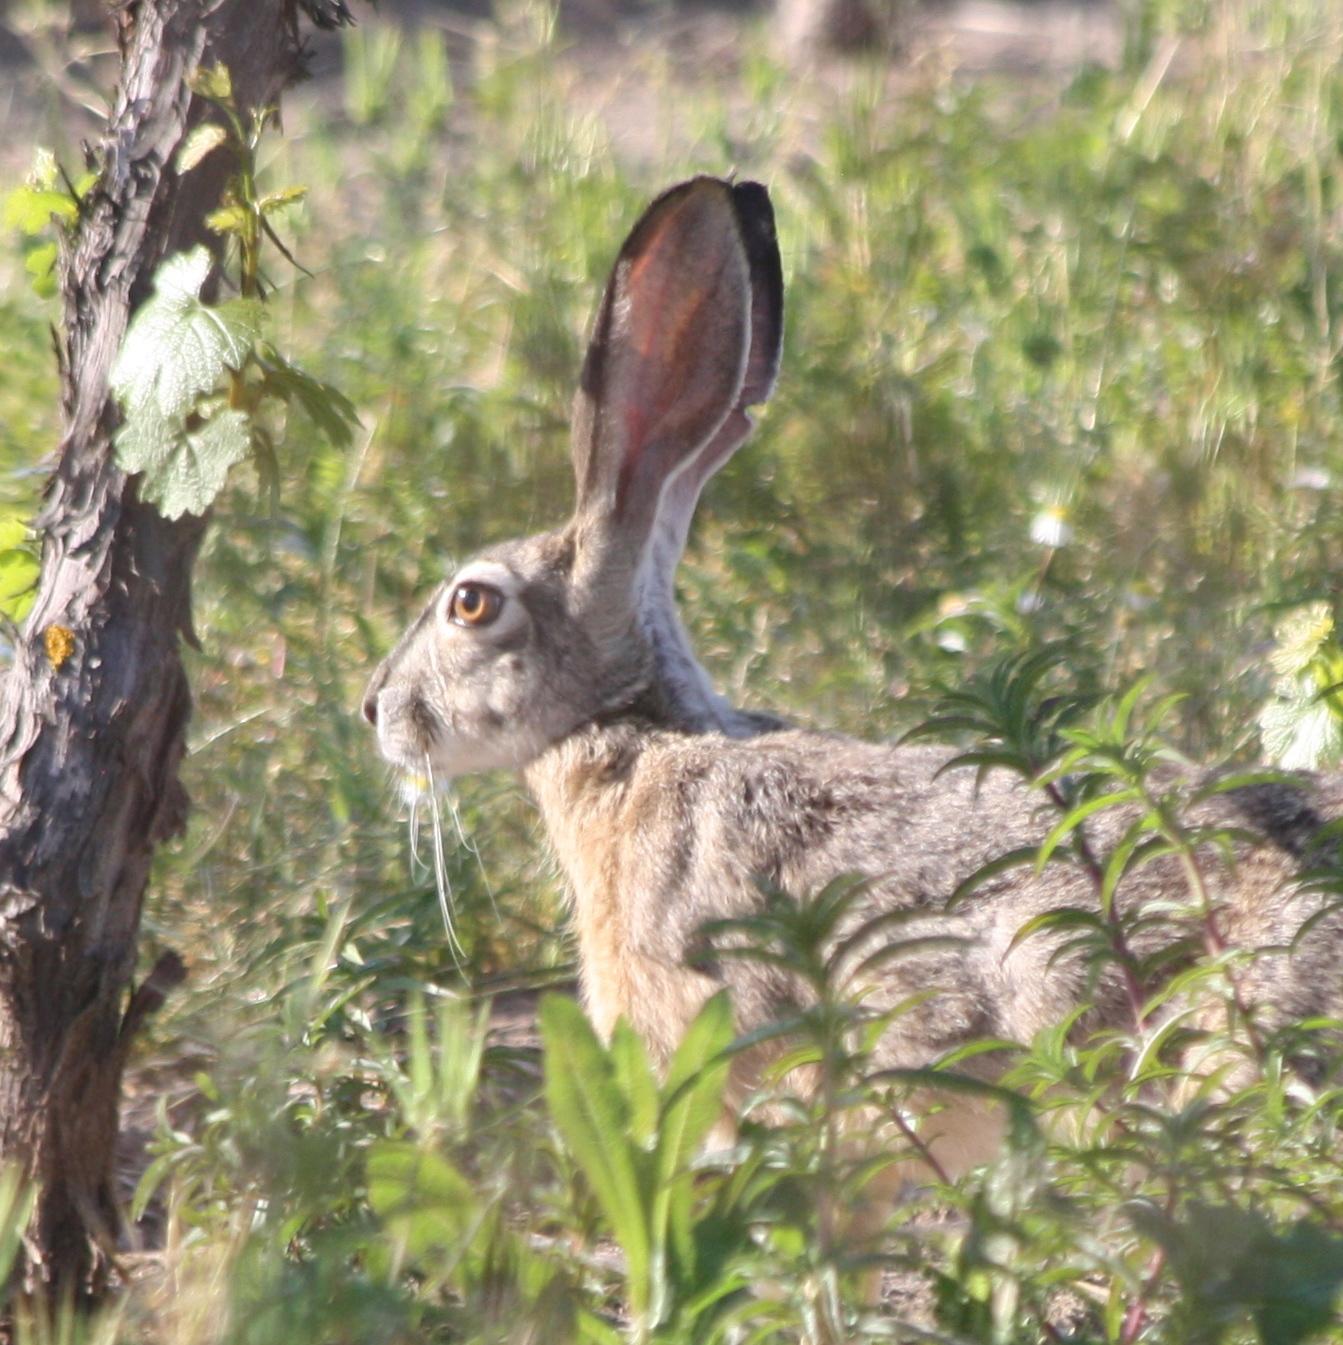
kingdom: Animalia
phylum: Chordata
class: Mammalia
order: Lagomorpha
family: Leporidae
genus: Lepus
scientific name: Lepus californicus
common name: Black-tailed jackrabbit
